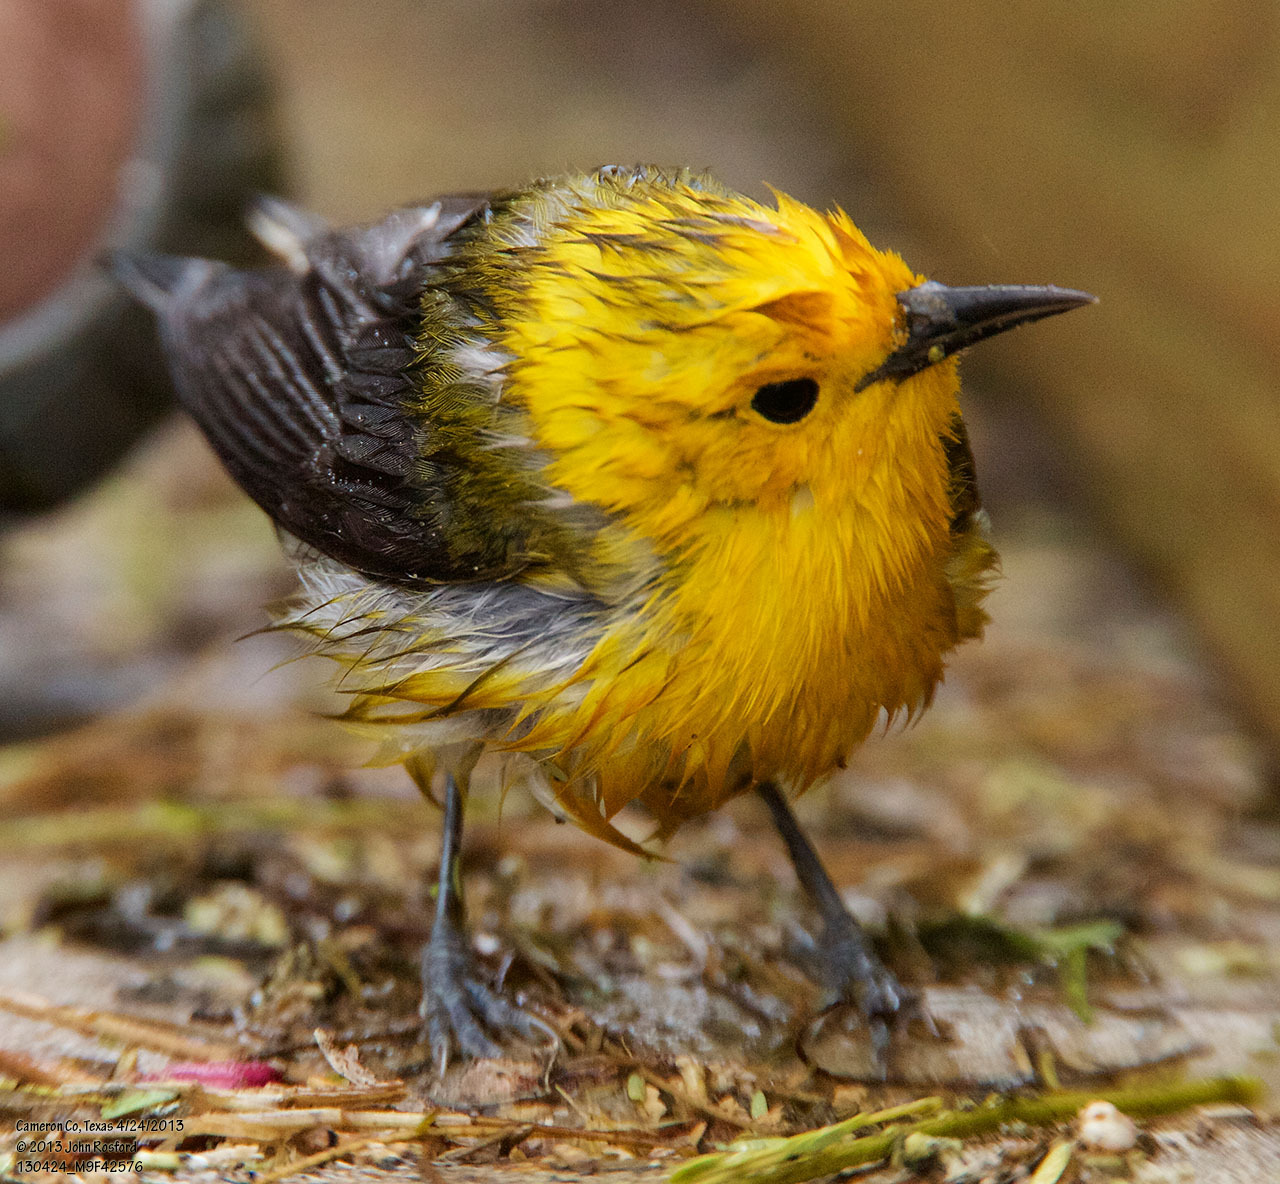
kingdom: Animalia
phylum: Chordata
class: Aves
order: Passeriformes
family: Parulidae
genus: Protonotaria
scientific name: Protonotaria citrea
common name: Prothonotary warbler
